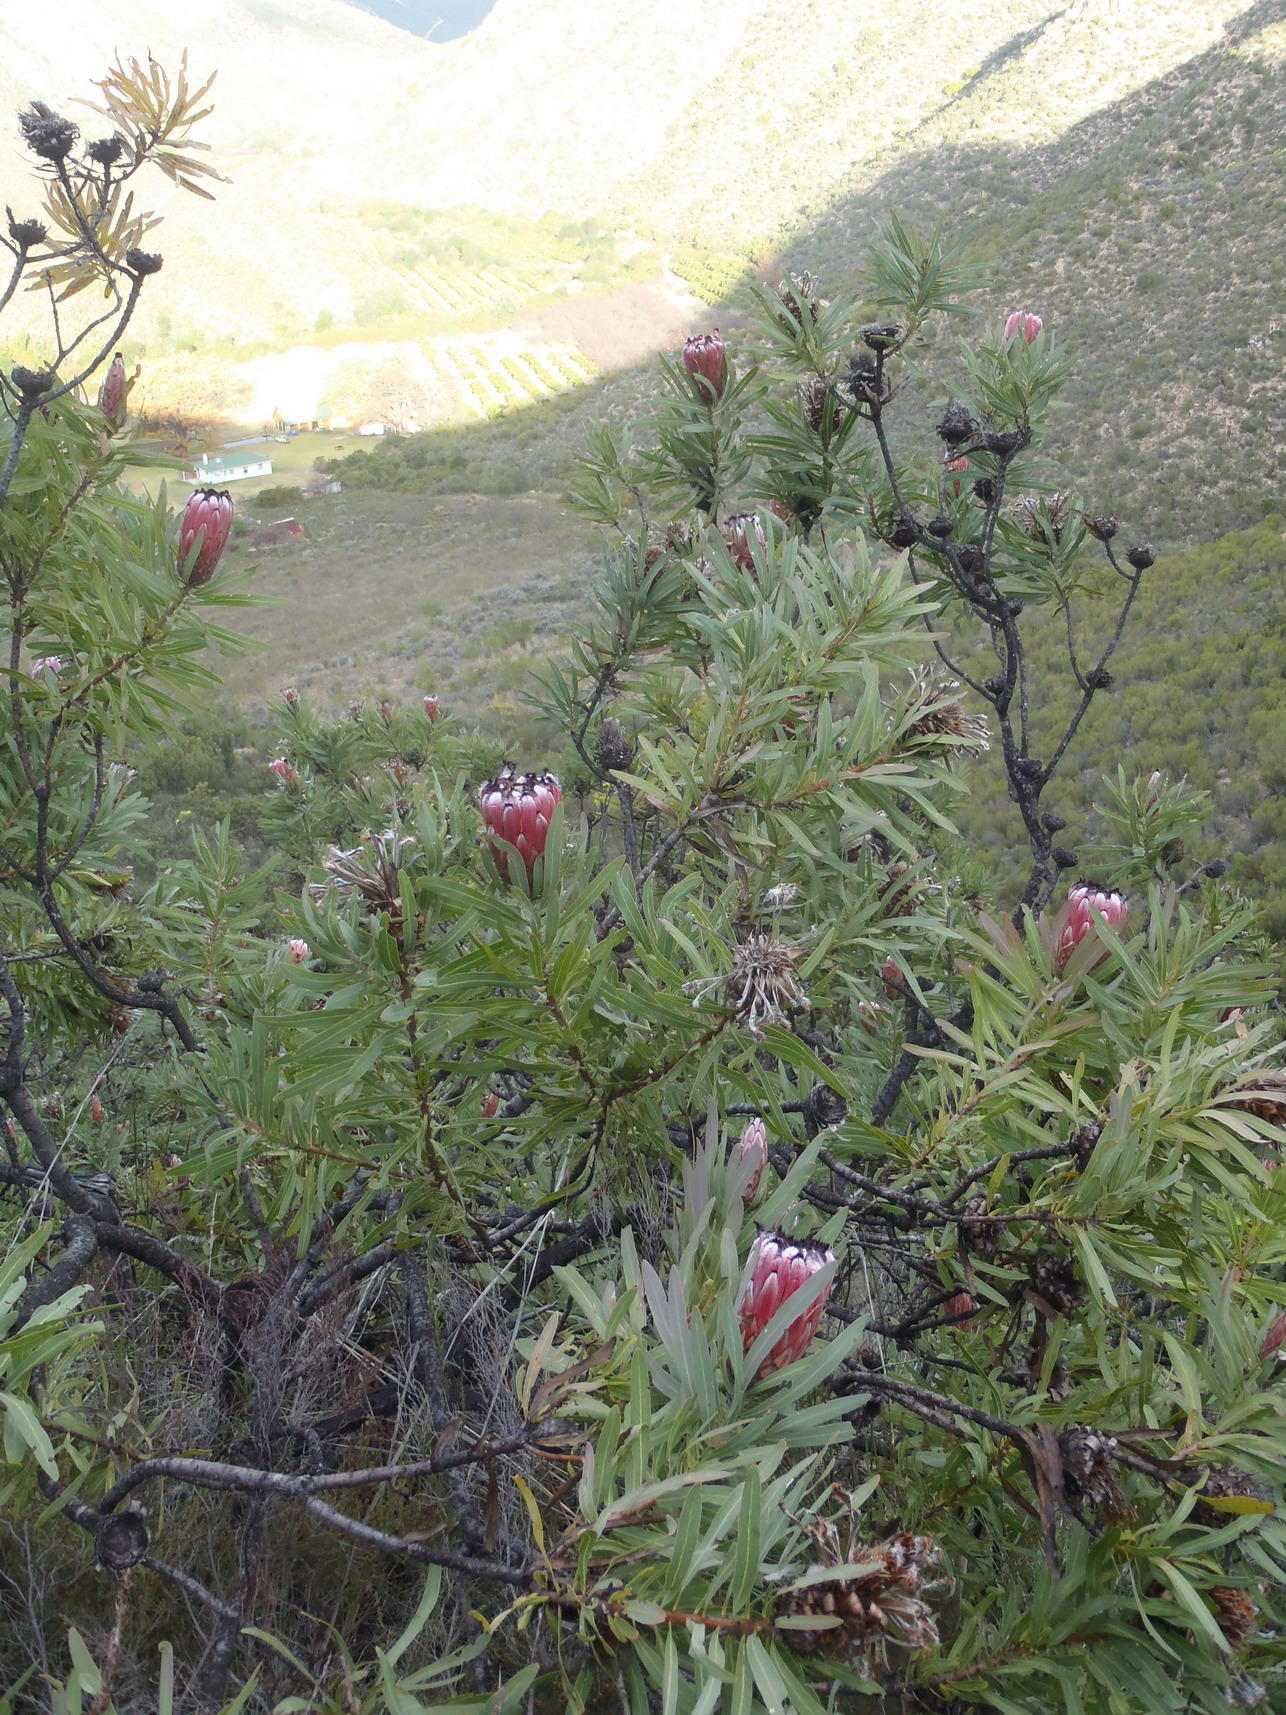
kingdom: Plantae
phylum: Tracheophyta
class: Magnoliopsida
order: Proteales
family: Proteaceae
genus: Protea
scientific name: Protea neriifolia
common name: Blue sugarbush
